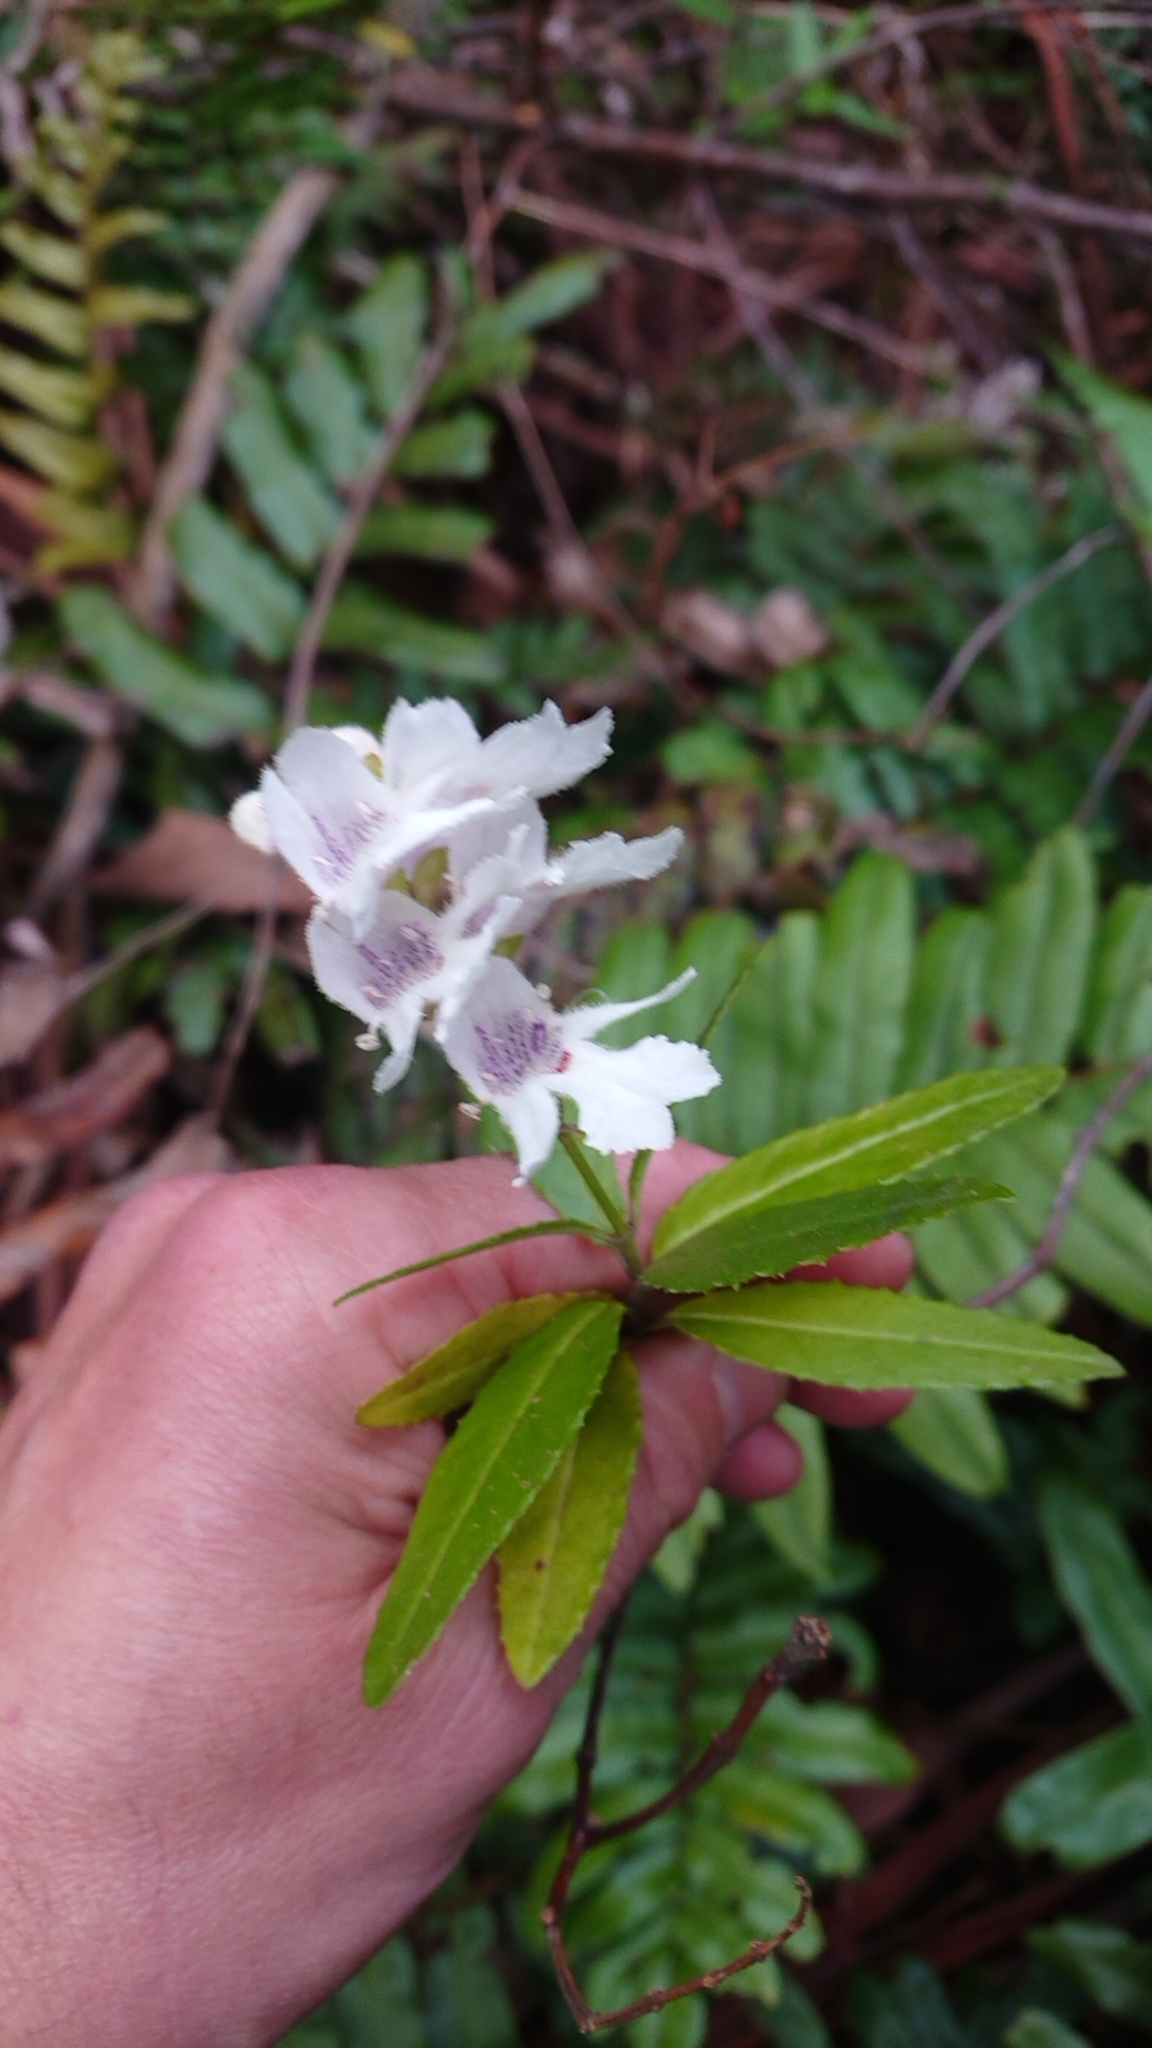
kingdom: Plantae
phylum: Tracheophyta
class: Magnoliopsida
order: Lamiales
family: Lamiaceae
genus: Prostanthera
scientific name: Prostanthera lasianthos
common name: Mountain-lilac
